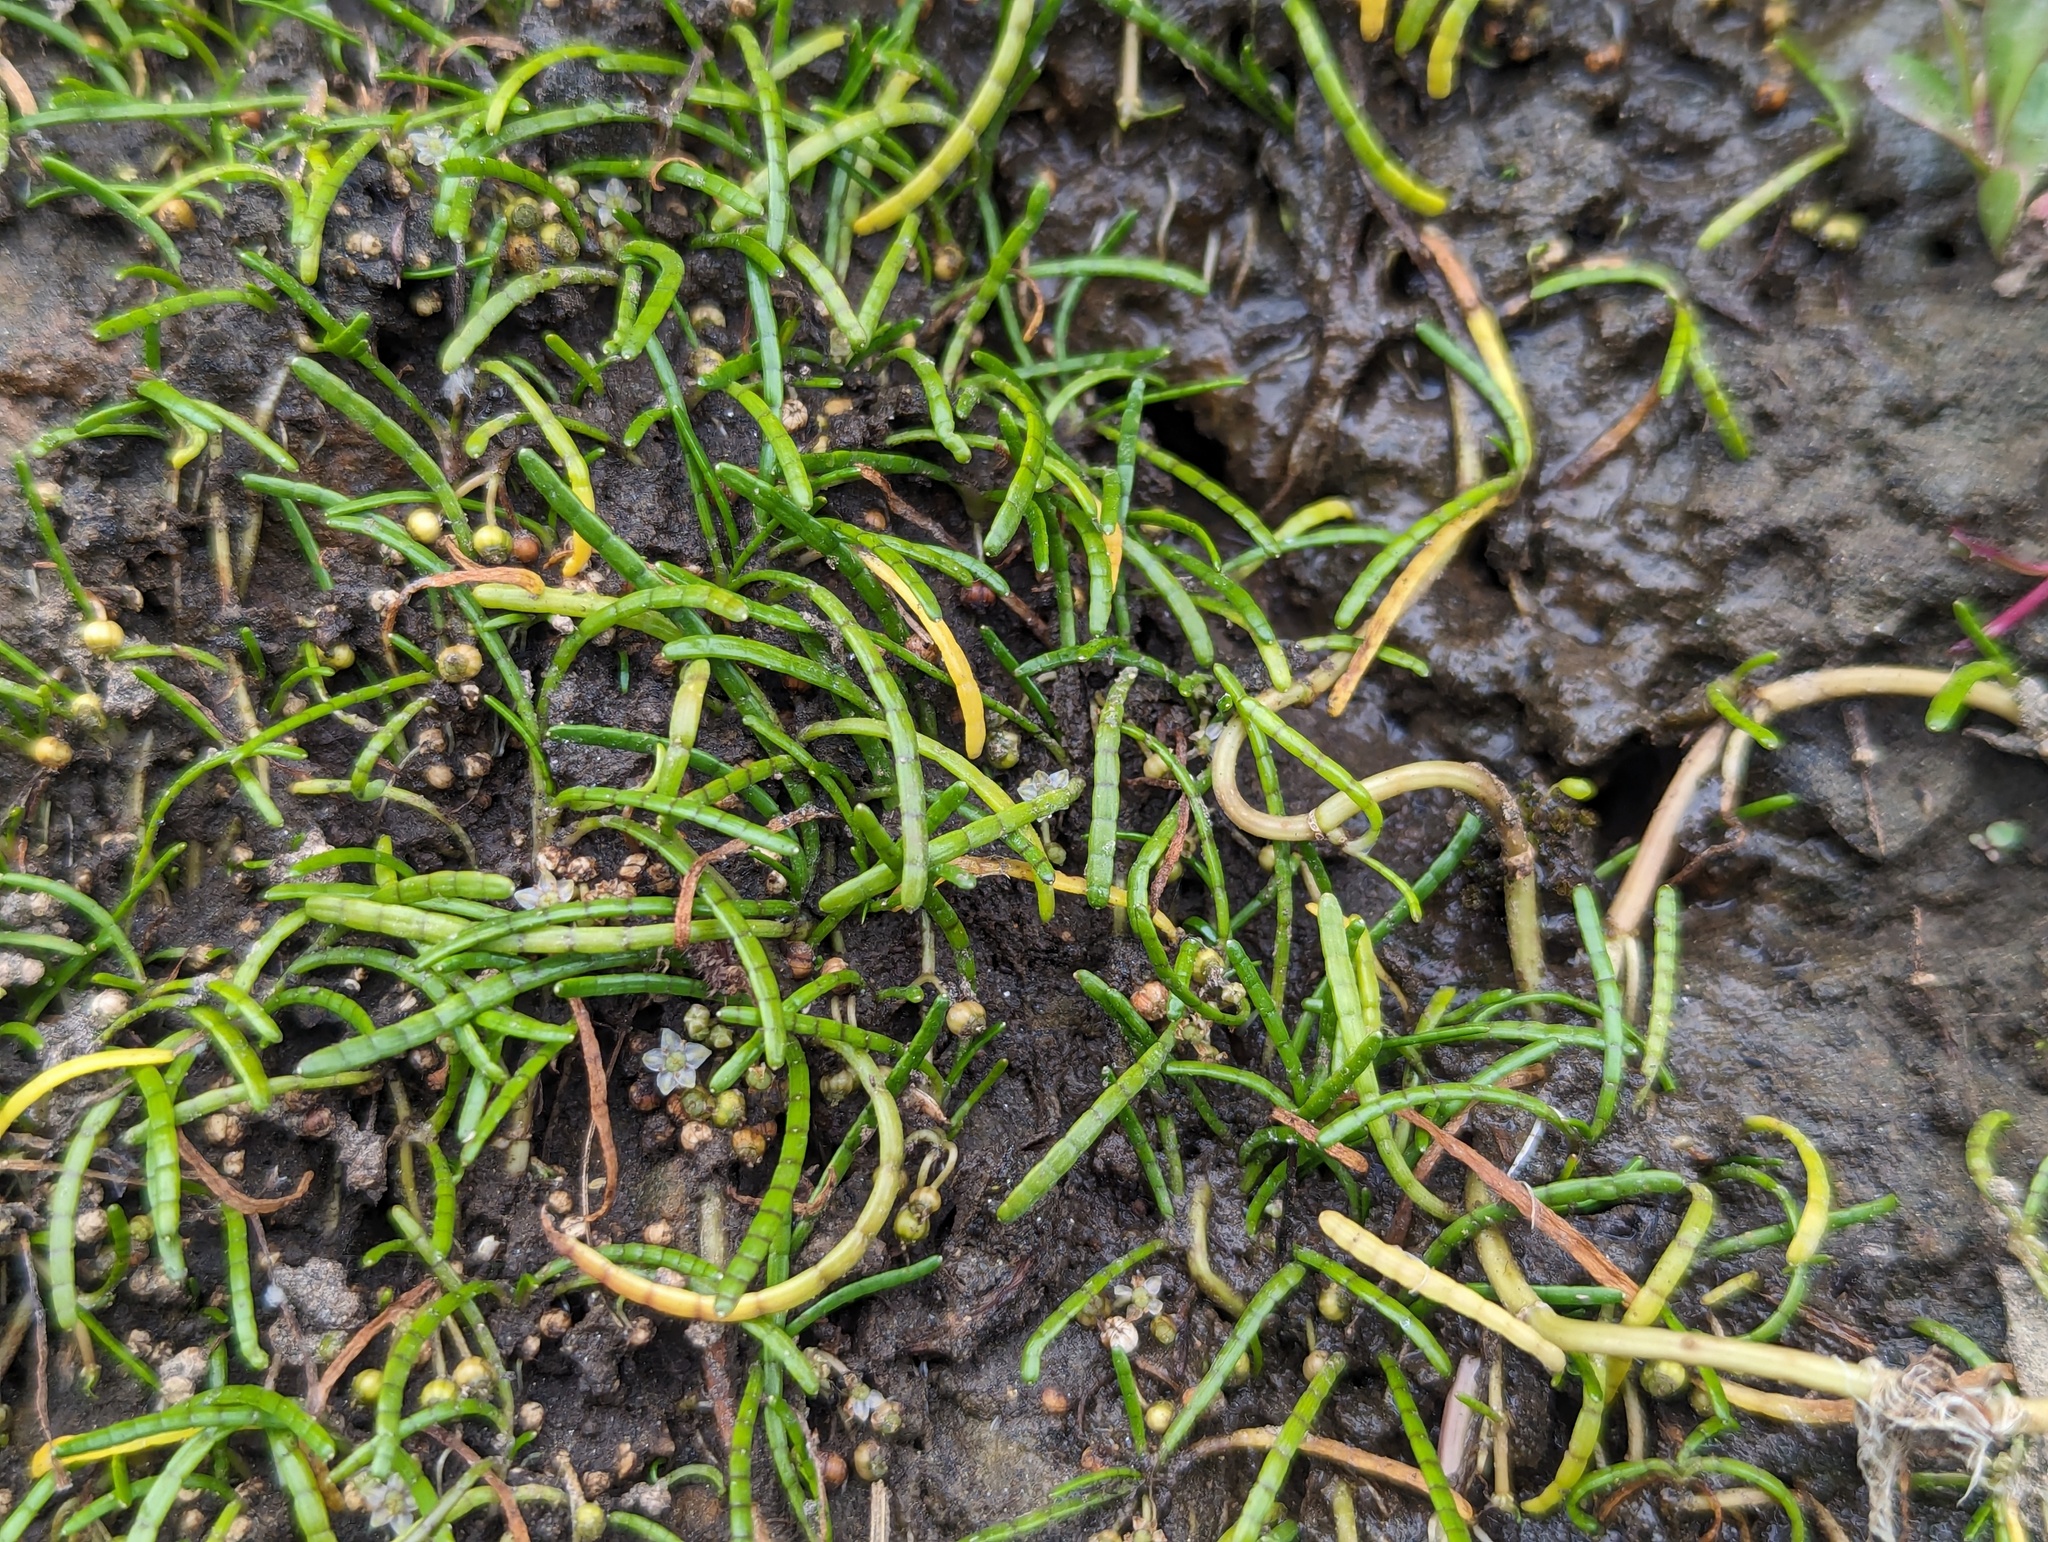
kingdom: Plantae
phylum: Tracheophyta
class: Magnoliopsida
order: Apiales
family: Apiaceae
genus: Lilaeopsis
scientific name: Lilaeopsis novae-zelandiae
